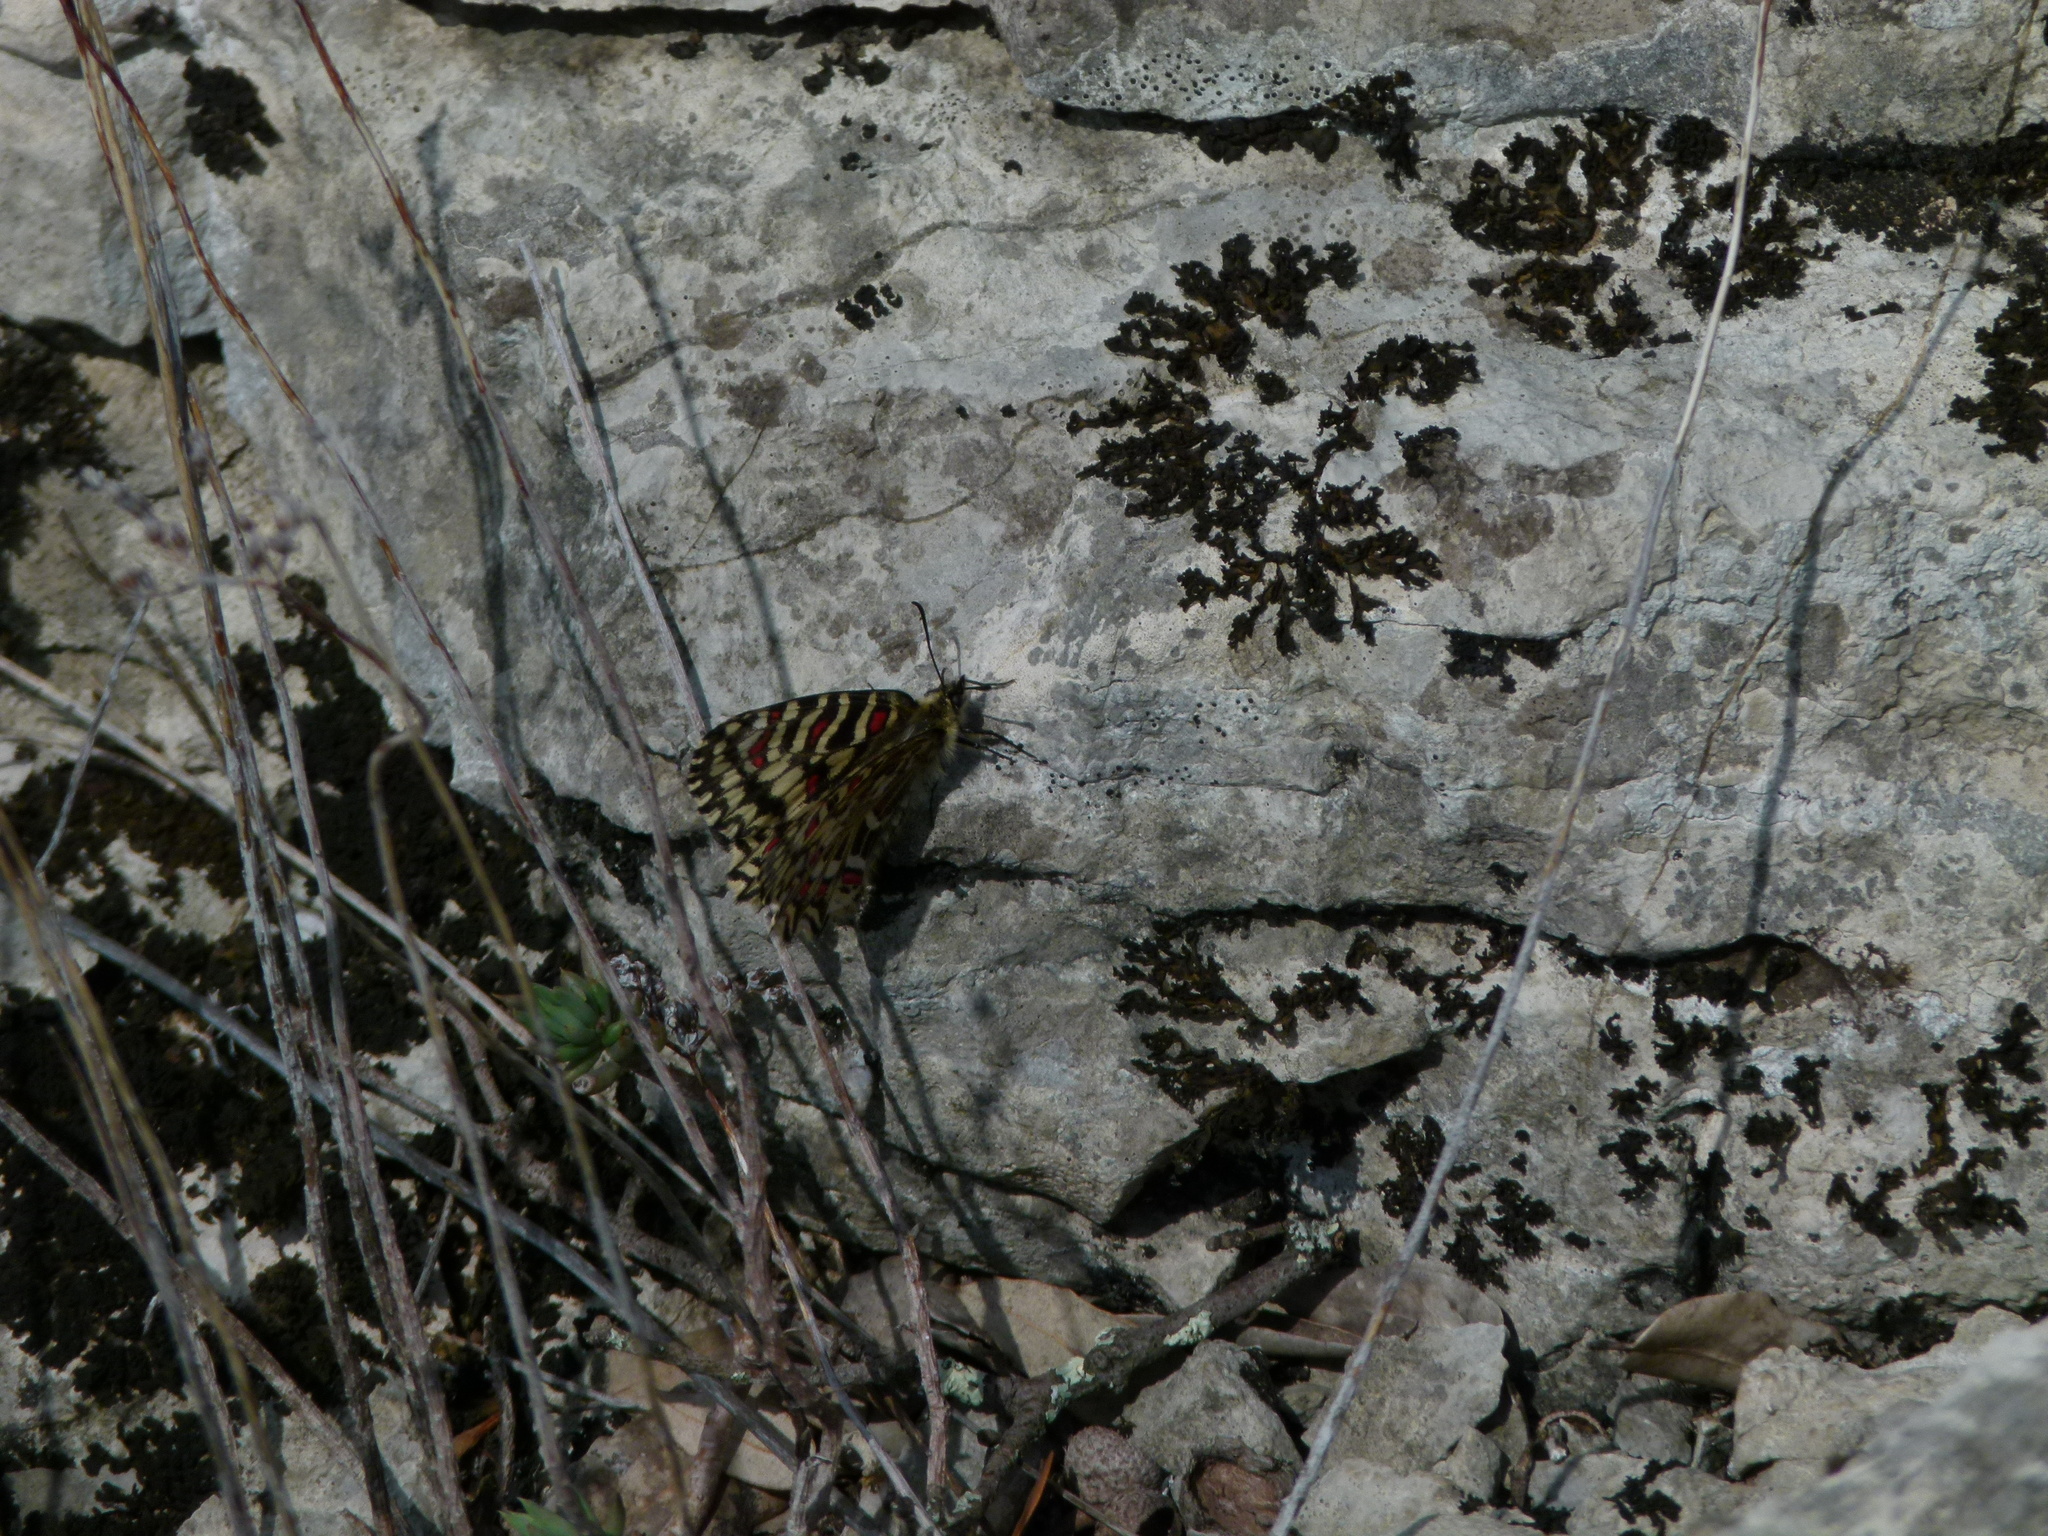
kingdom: Animalia
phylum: Arthropoda
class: Insecta
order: Lepidoptera
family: Papilionidae
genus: Zerynthia
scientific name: Zerynthia rumina
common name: Spanish festoon
